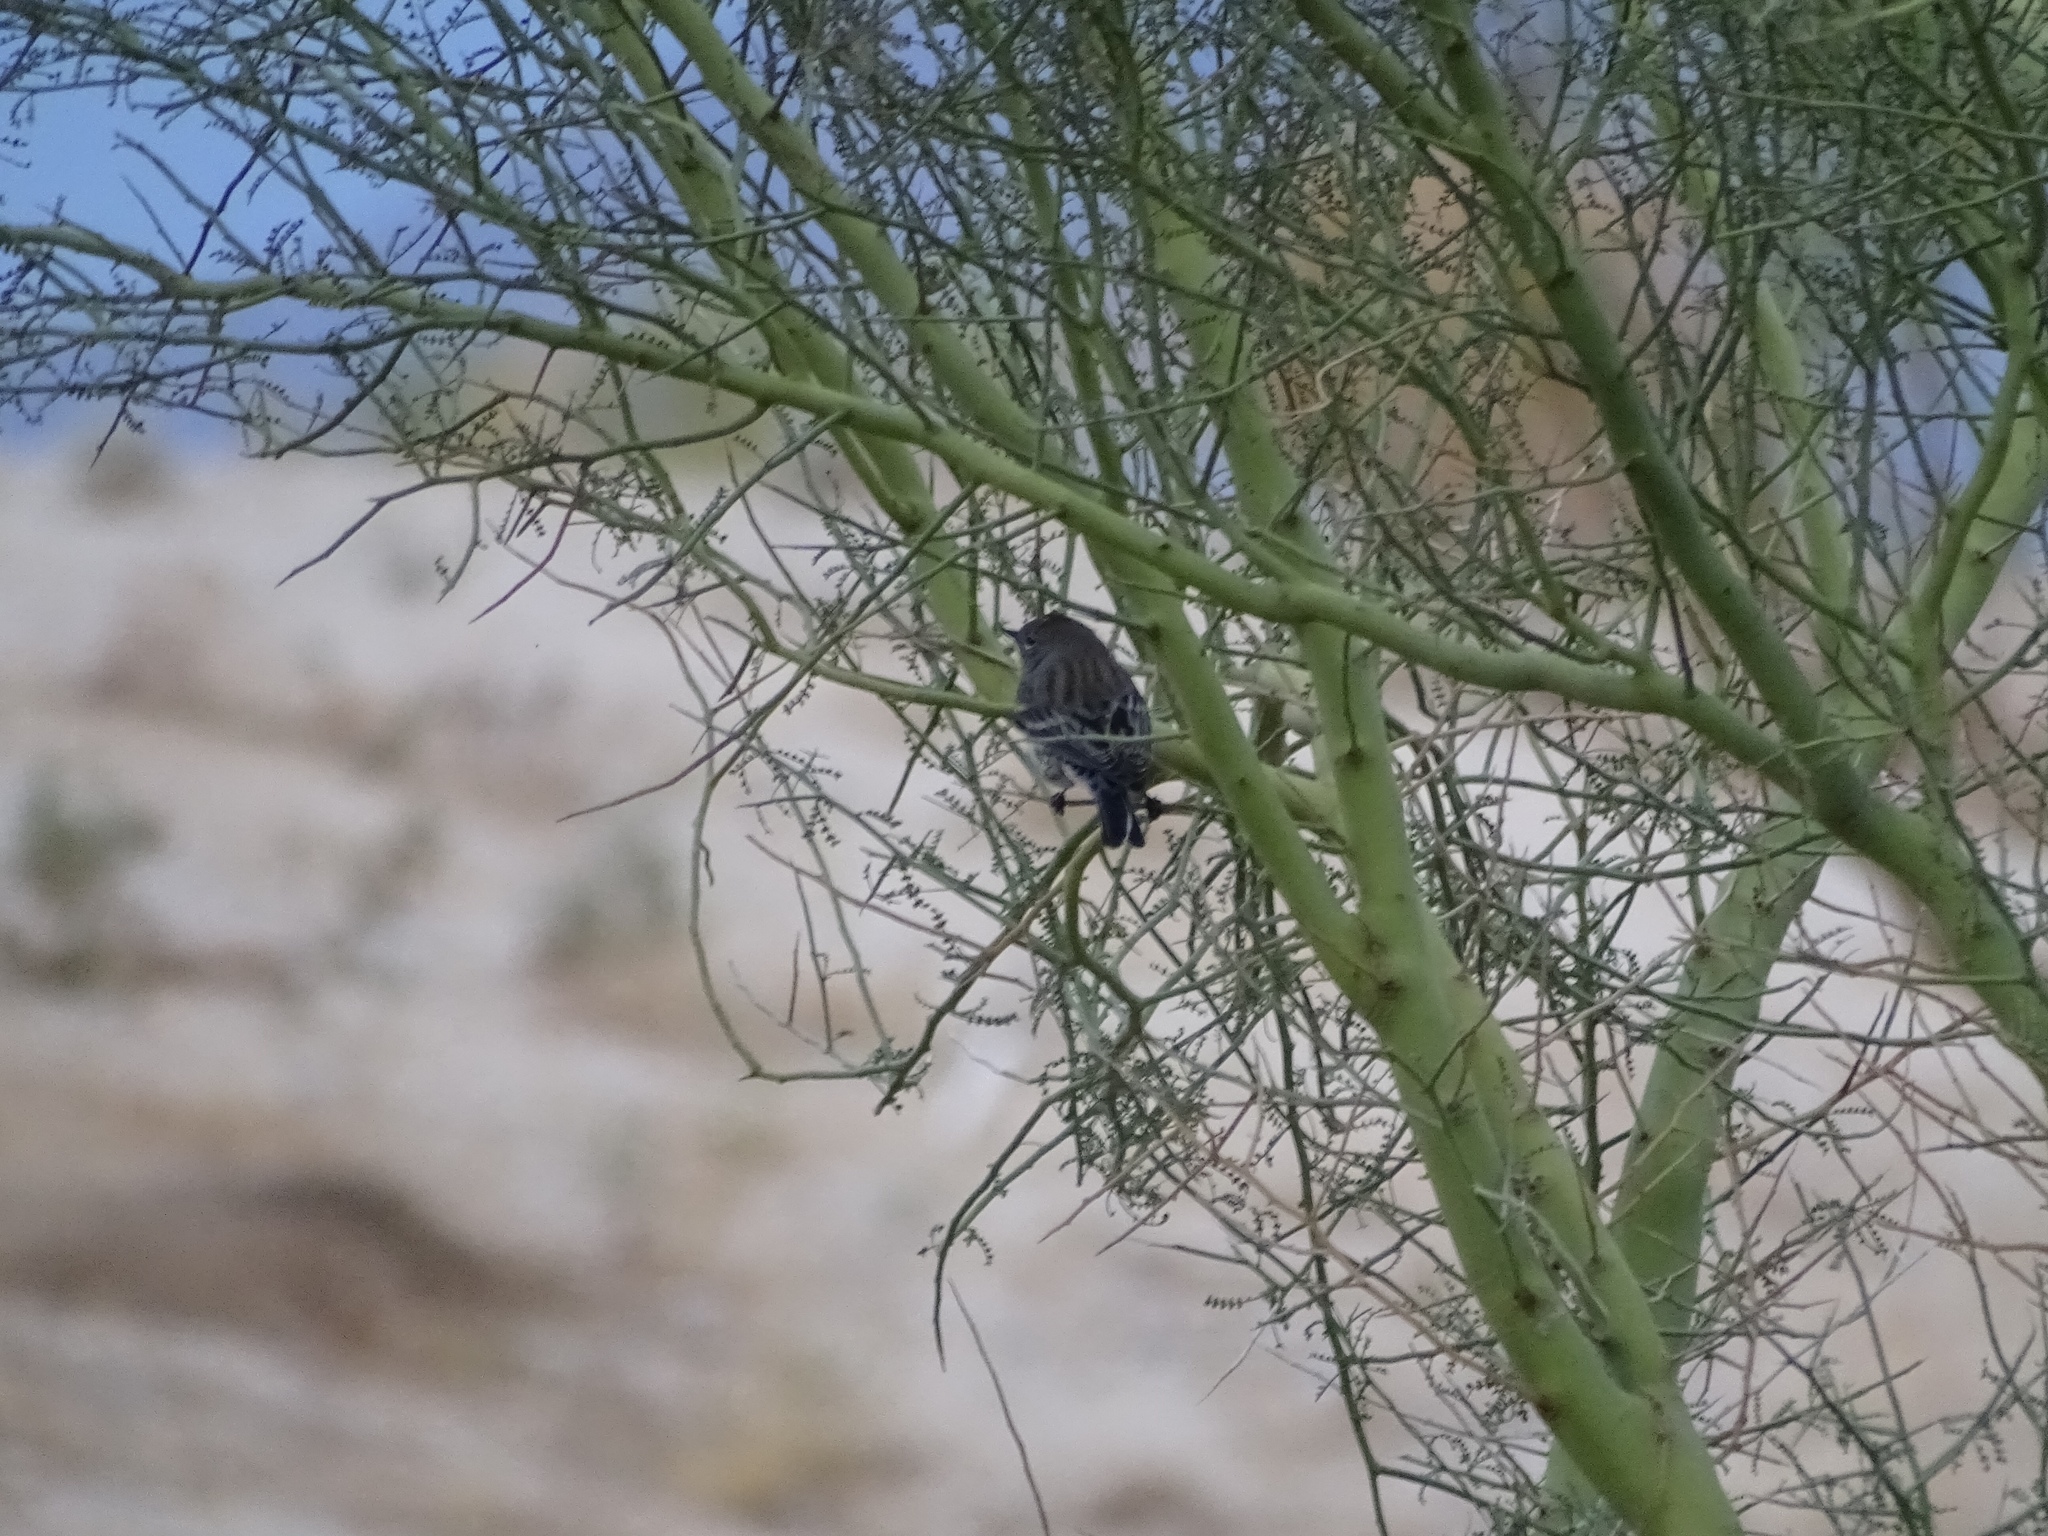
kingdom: Animalia
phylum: Chordata
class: Aves
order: Passeriformes
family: Parulidae
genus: Setophaga
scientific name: Setophaga coronata
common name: Myrtle warbler
